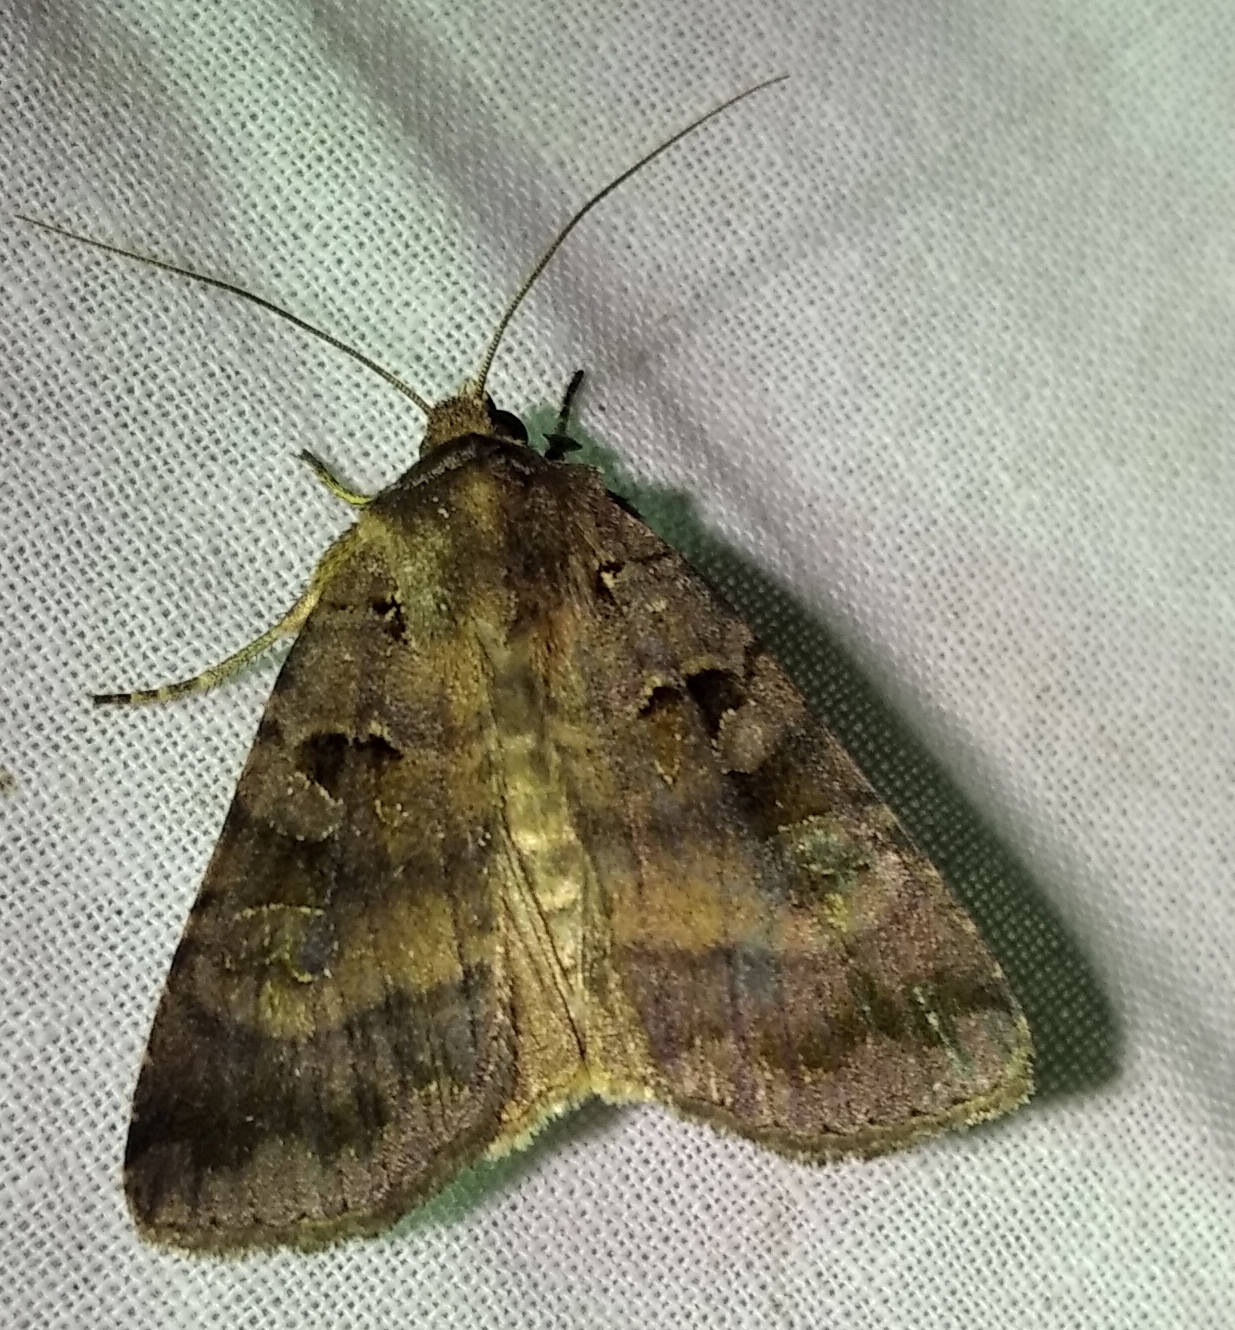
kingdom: Animalia
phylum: Arthropoda
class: Insecta
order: Lepidoptera
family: Noctuidae
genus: Xestia
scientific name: Xestia stigmatica
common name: Square-spotted clay
